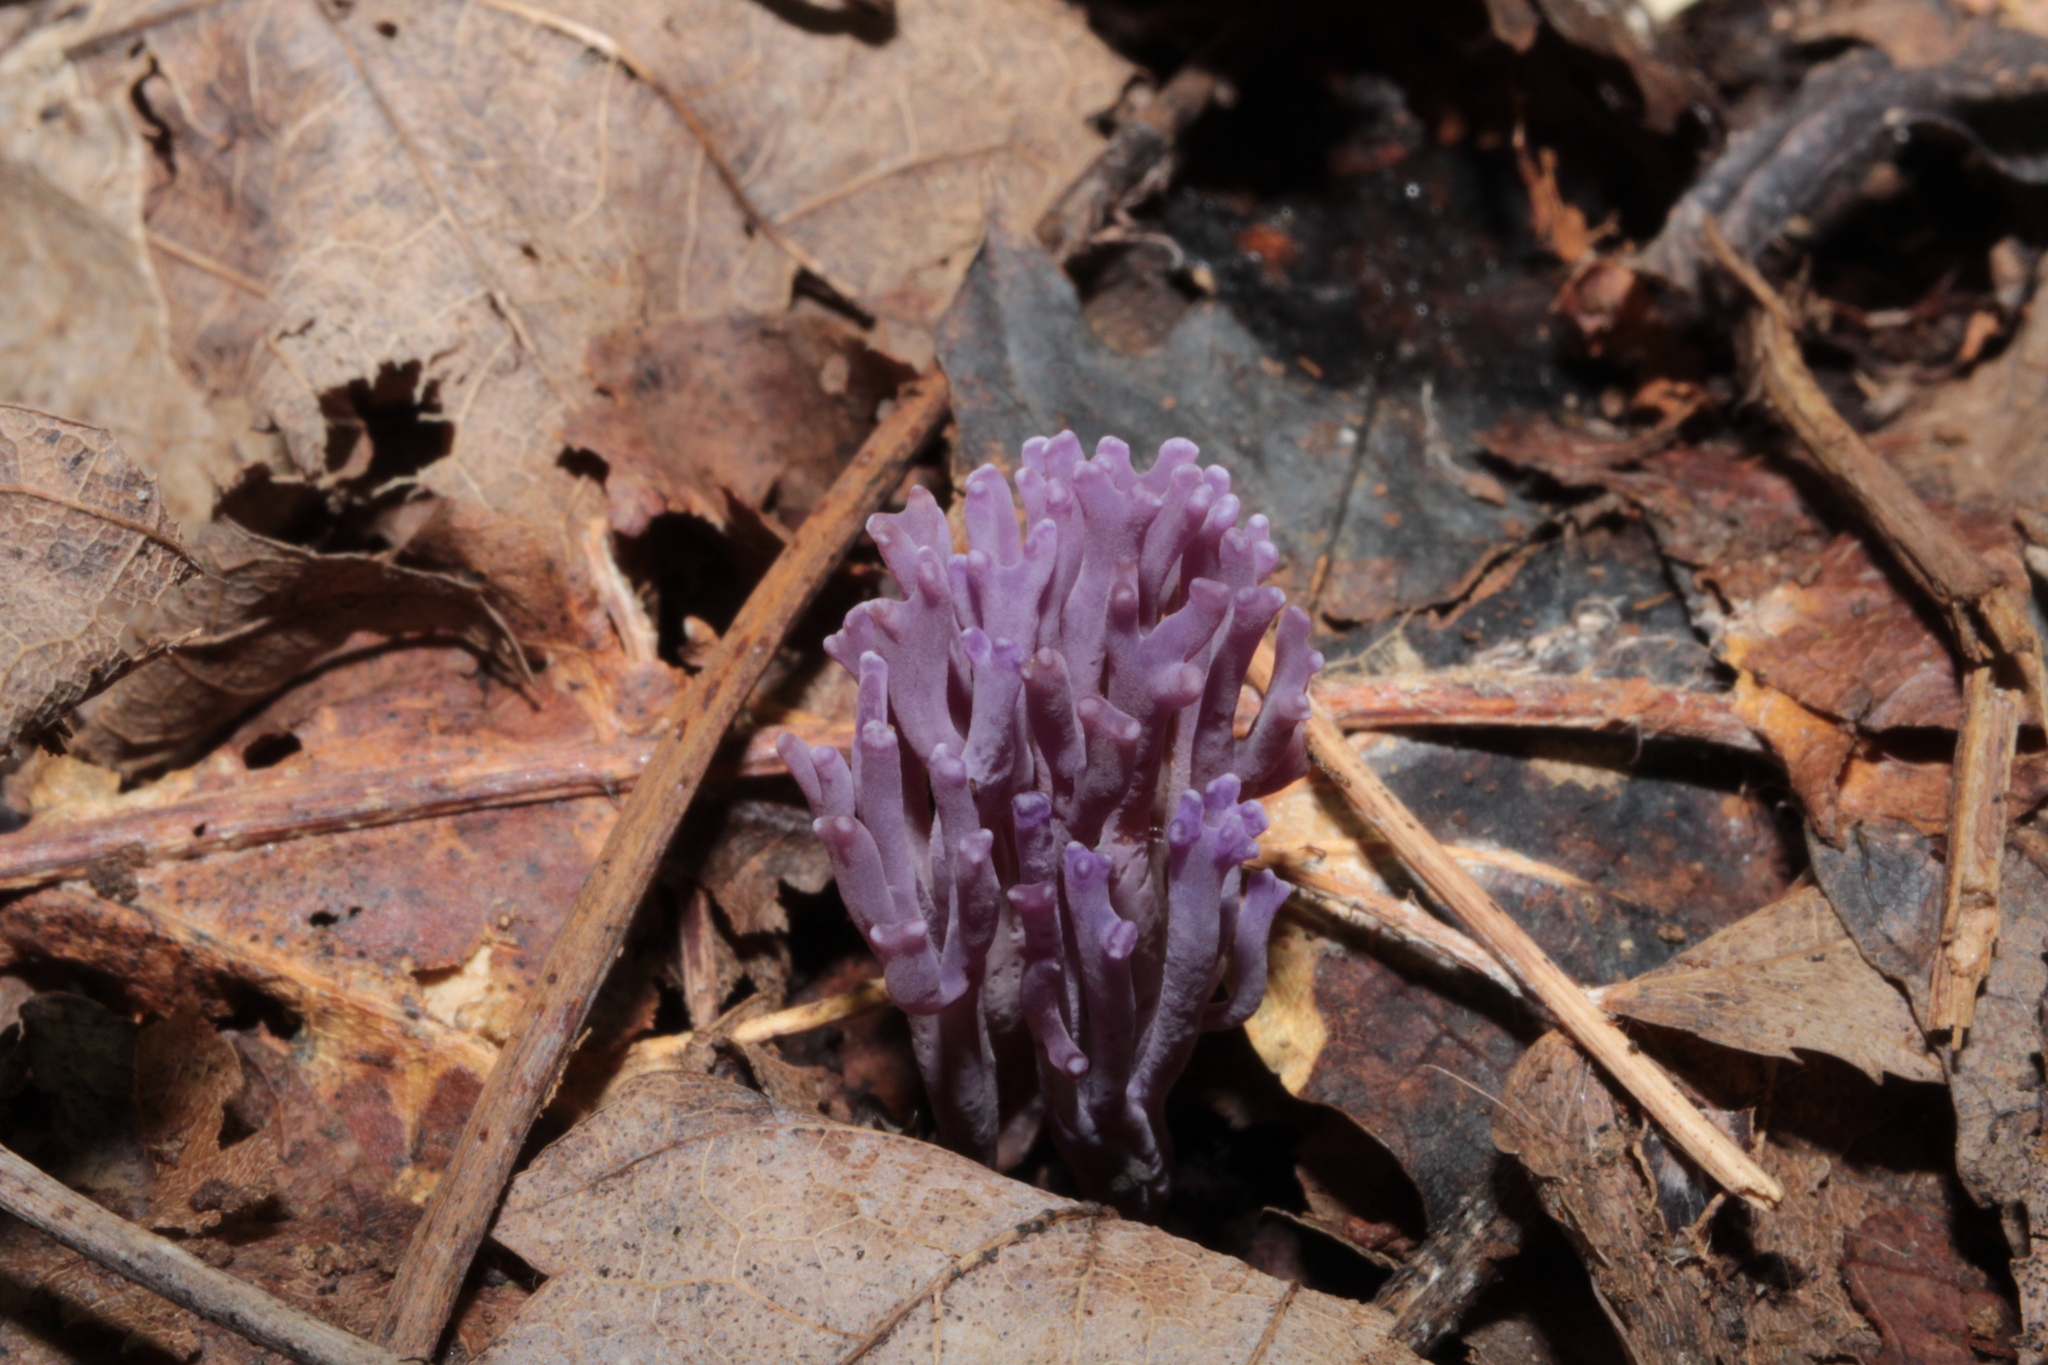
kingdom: Fungi
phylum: Basidiomycota
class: Agaricomycetes
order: Agaricales
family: Clavariaceae
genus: Clavaria
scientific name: Clavaria zollingeri
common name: Violet coral
